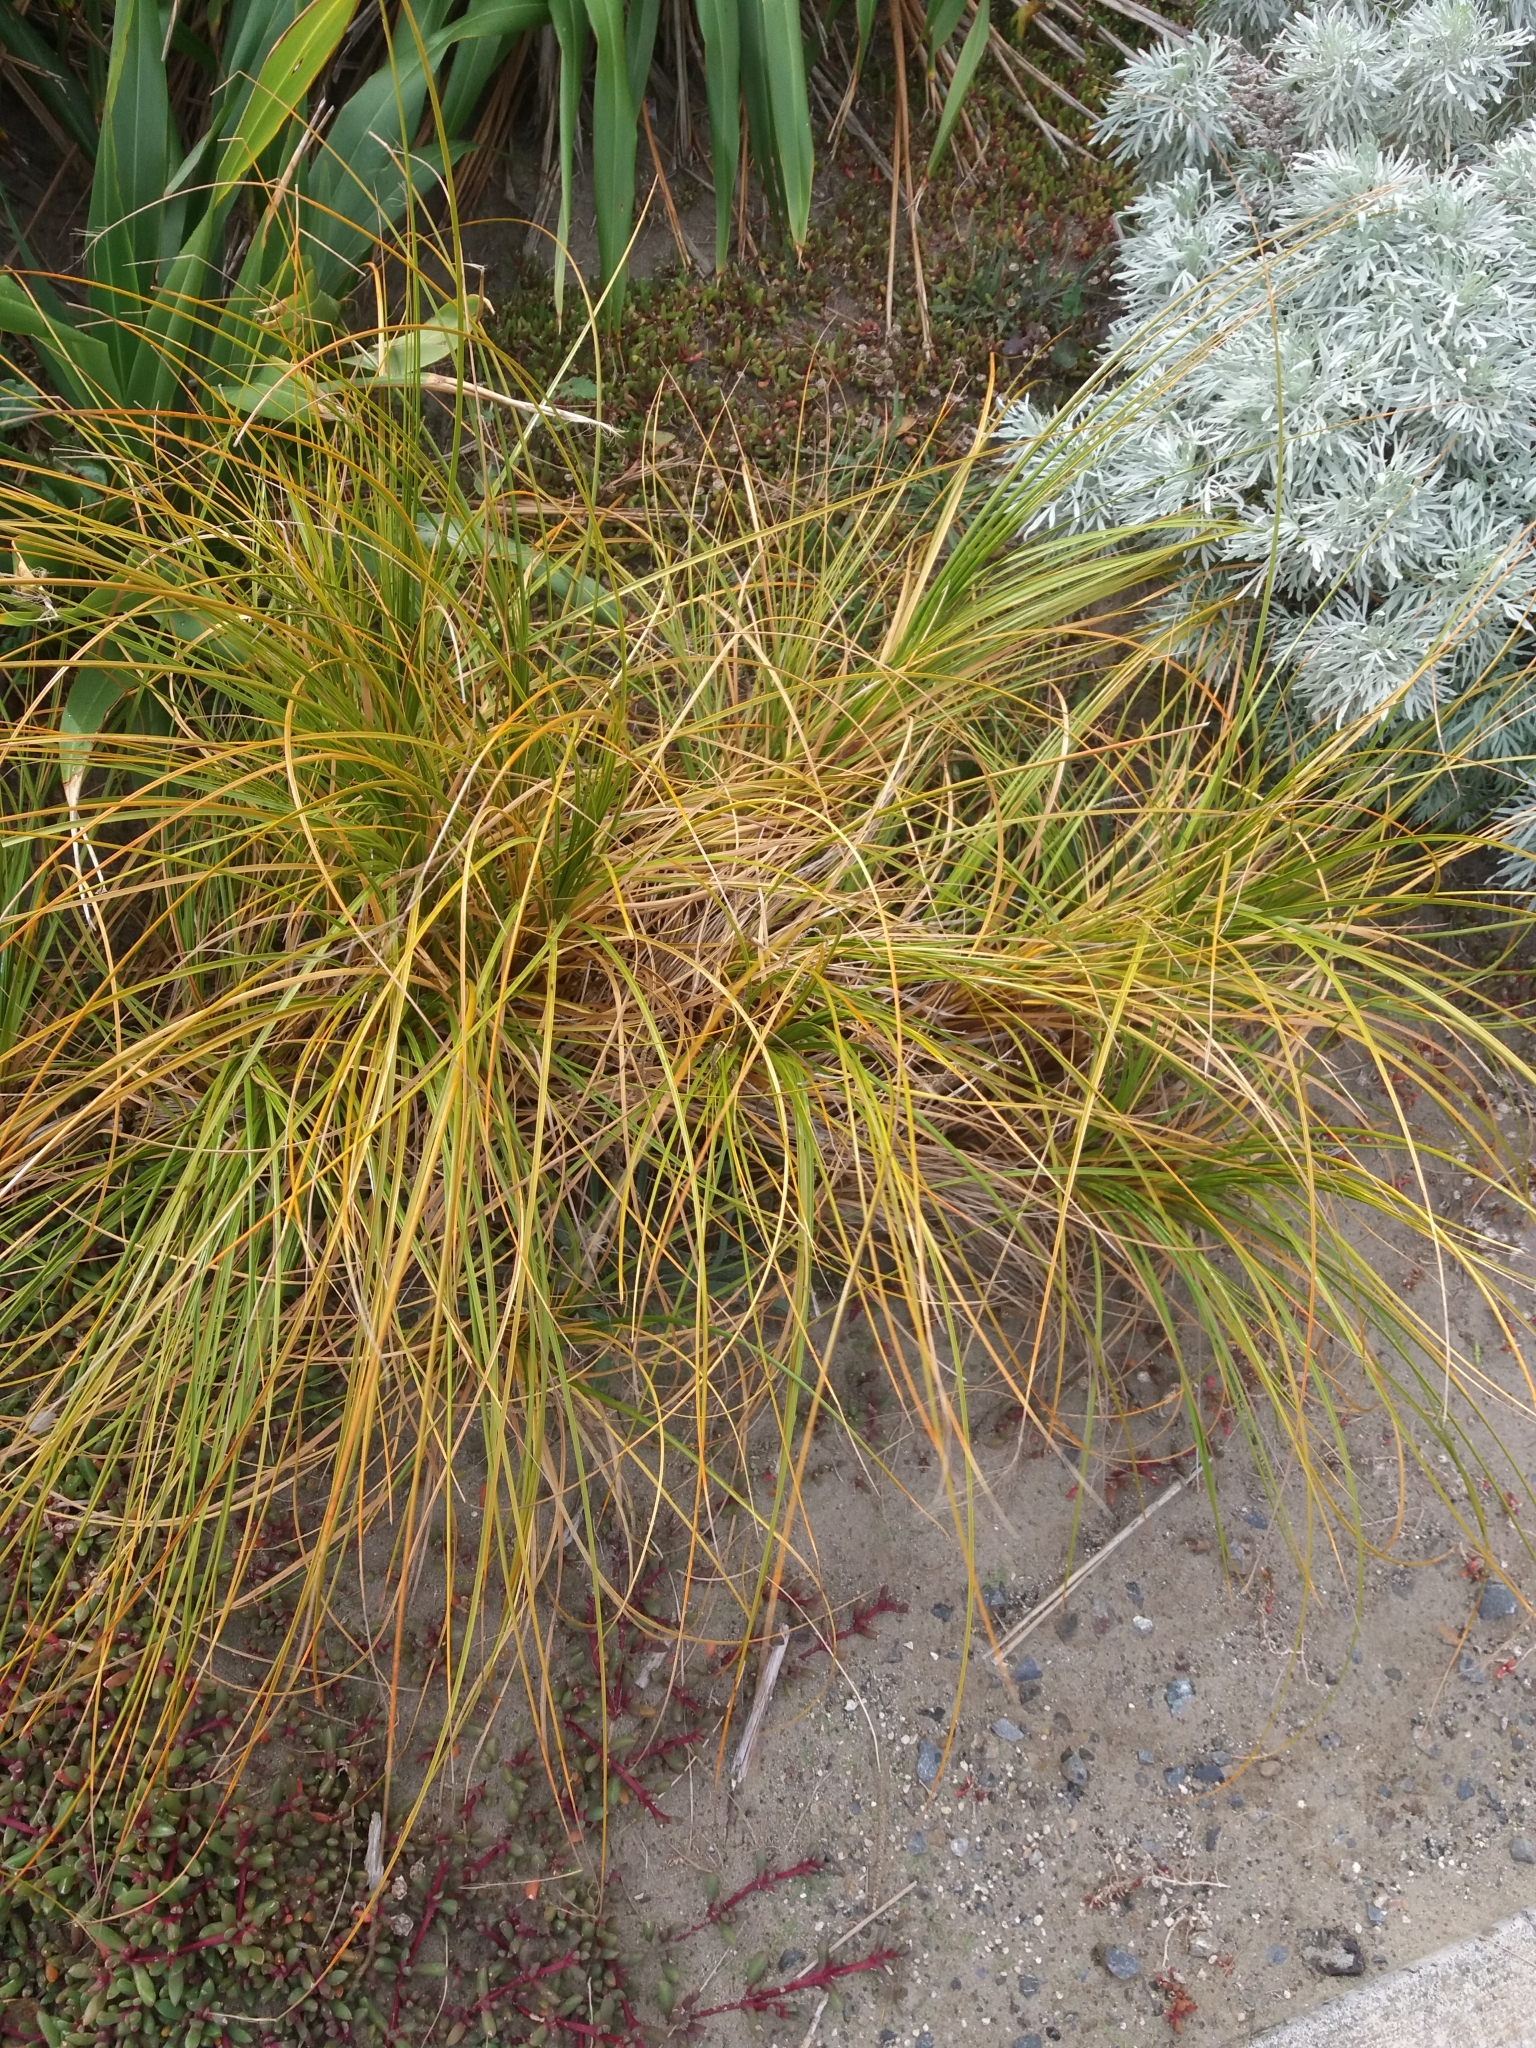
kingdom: Plantae
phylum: Tracheophyta
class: Liliopsida
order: Poales
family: Cyperaceae
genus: Ficinia
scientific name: Ficinia spiralis
